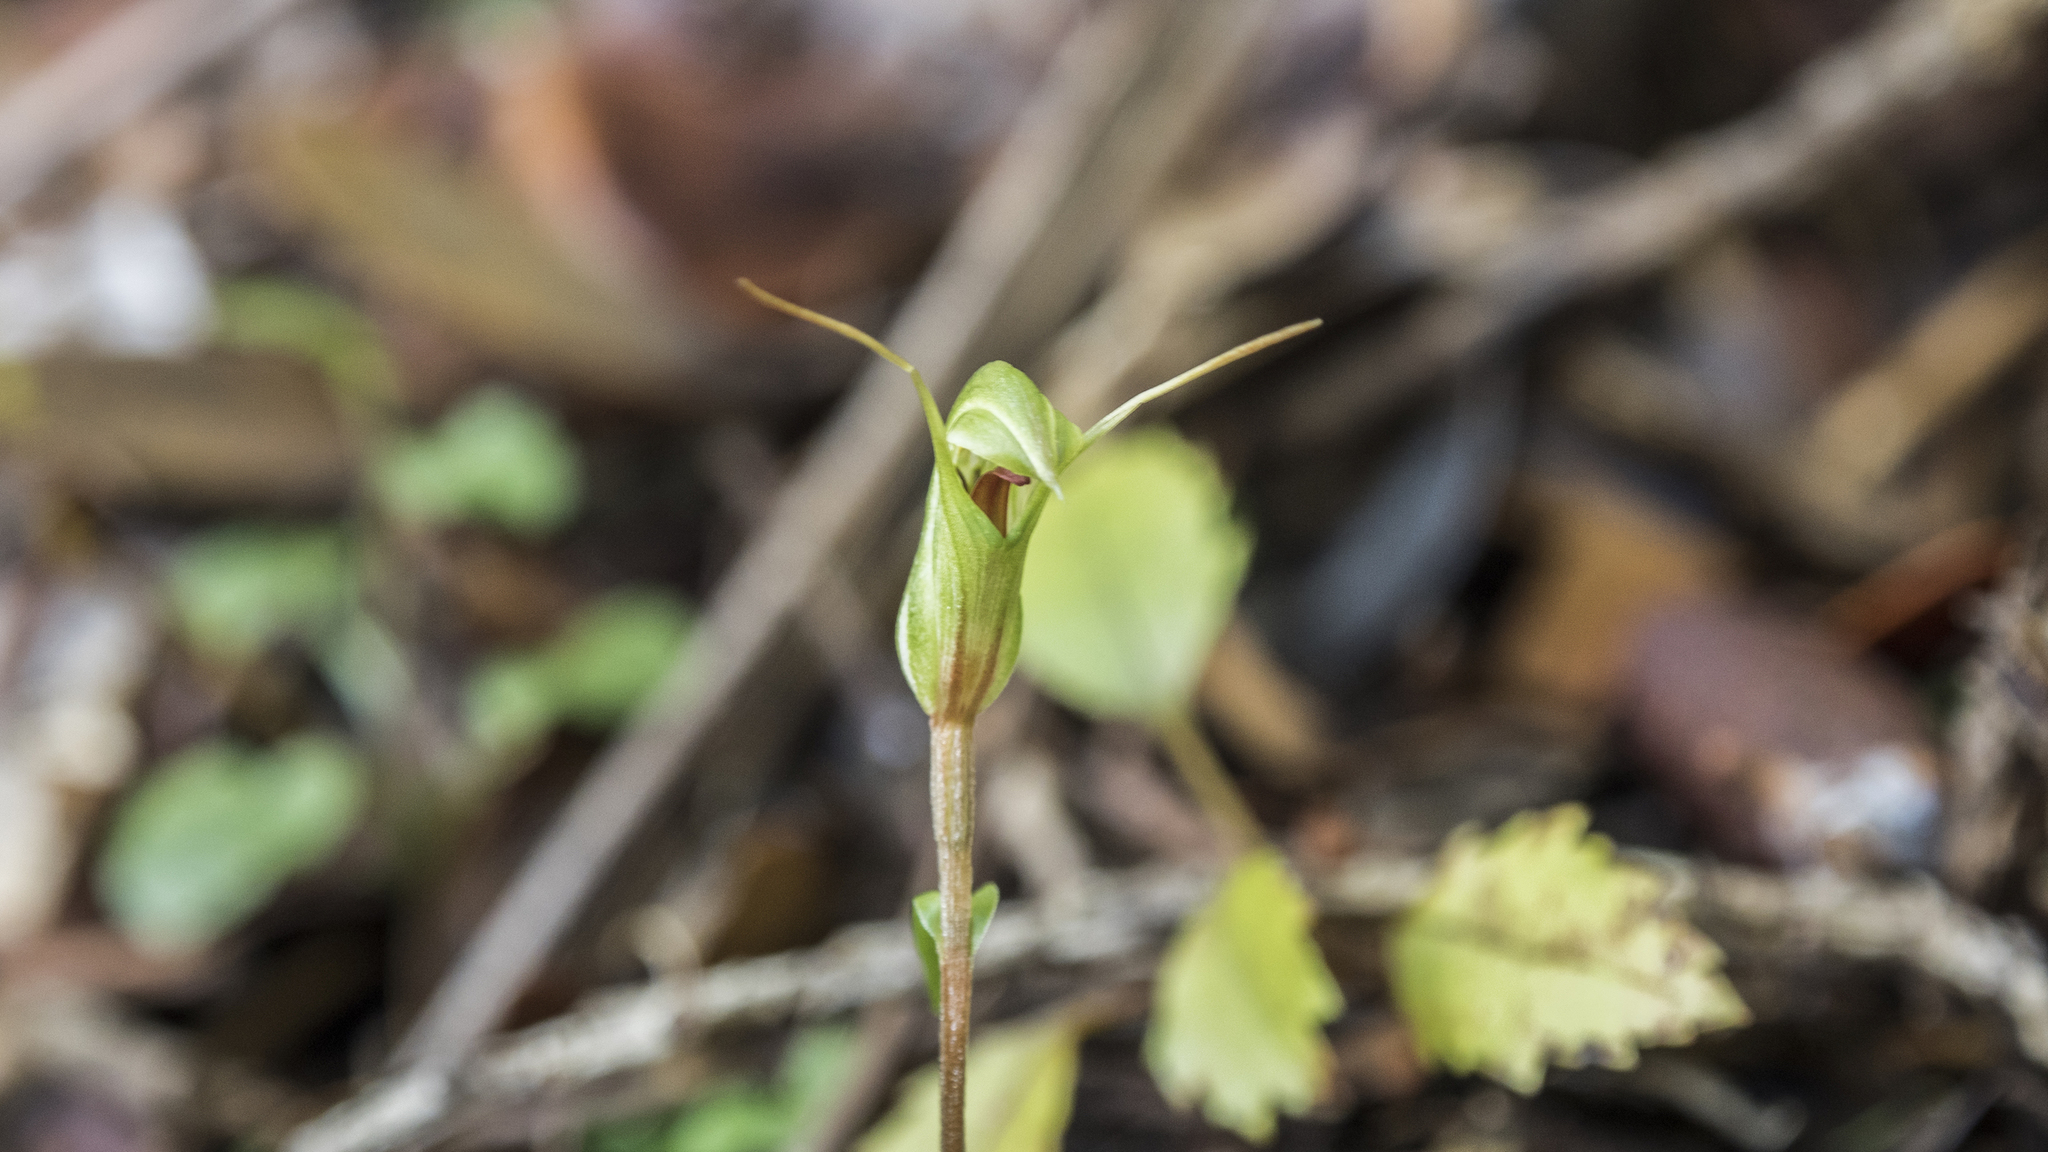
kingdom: Plantae
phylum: Tracheophyta
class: Liliopsida
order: Asparagales
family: Orchidaceae
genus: Pterostylis
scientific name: Pterostylis trullifolia
